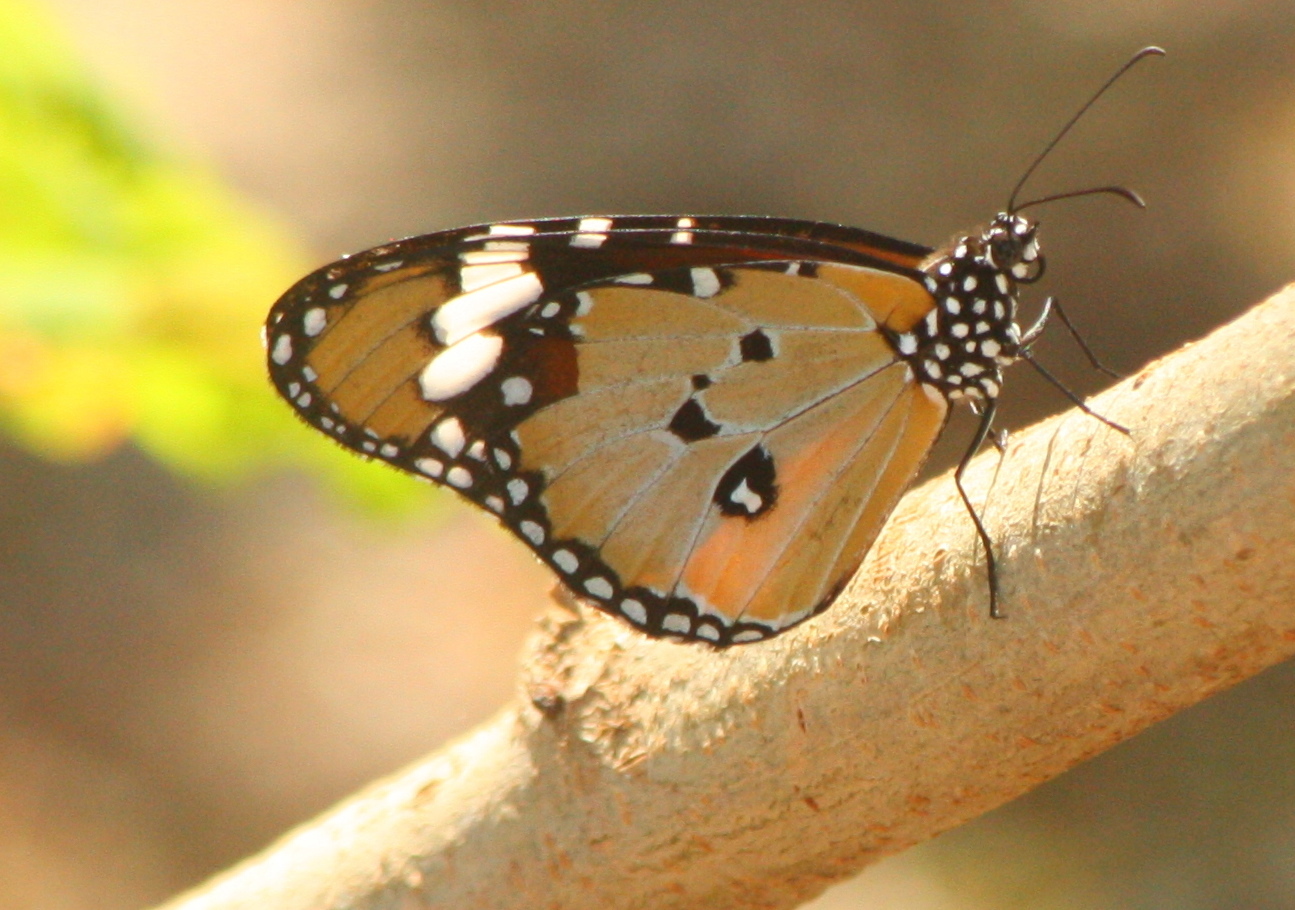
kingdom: Animalia
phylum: Arthropoda
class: Insecta
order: Lepidoptera
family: Nymphalidae
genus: Danaus
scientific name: Danaus chrysippus
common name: Plain tiger
